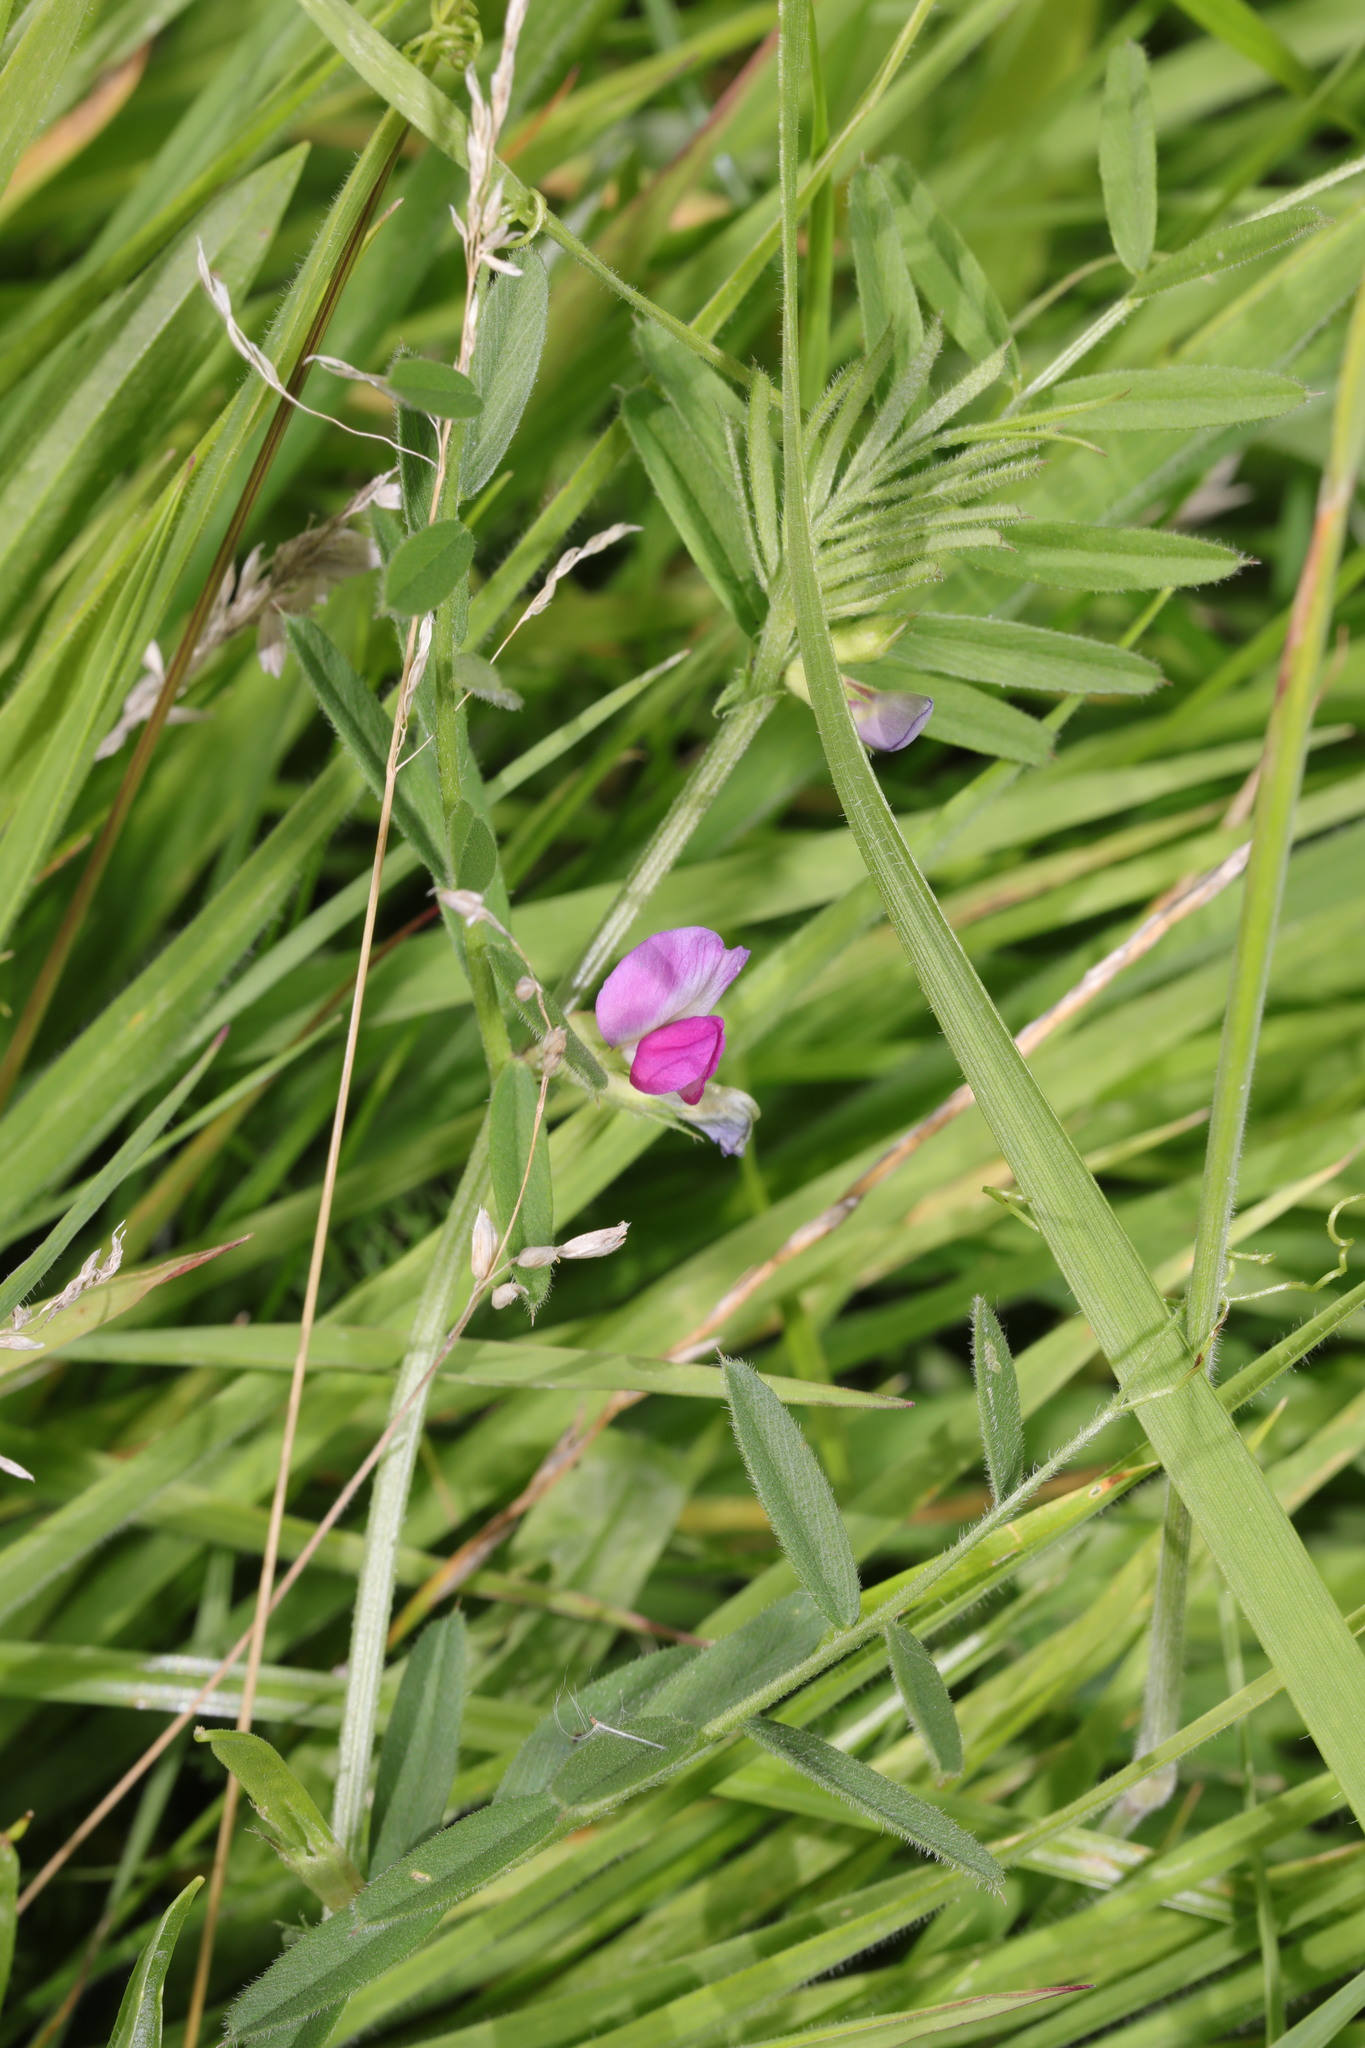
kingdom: Plantae
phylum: Tracheophyta
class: Magnoliopsida
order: Fabales
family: Fabaceae
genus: Vicia
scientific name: Vicia sativa
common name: Garden vetch
